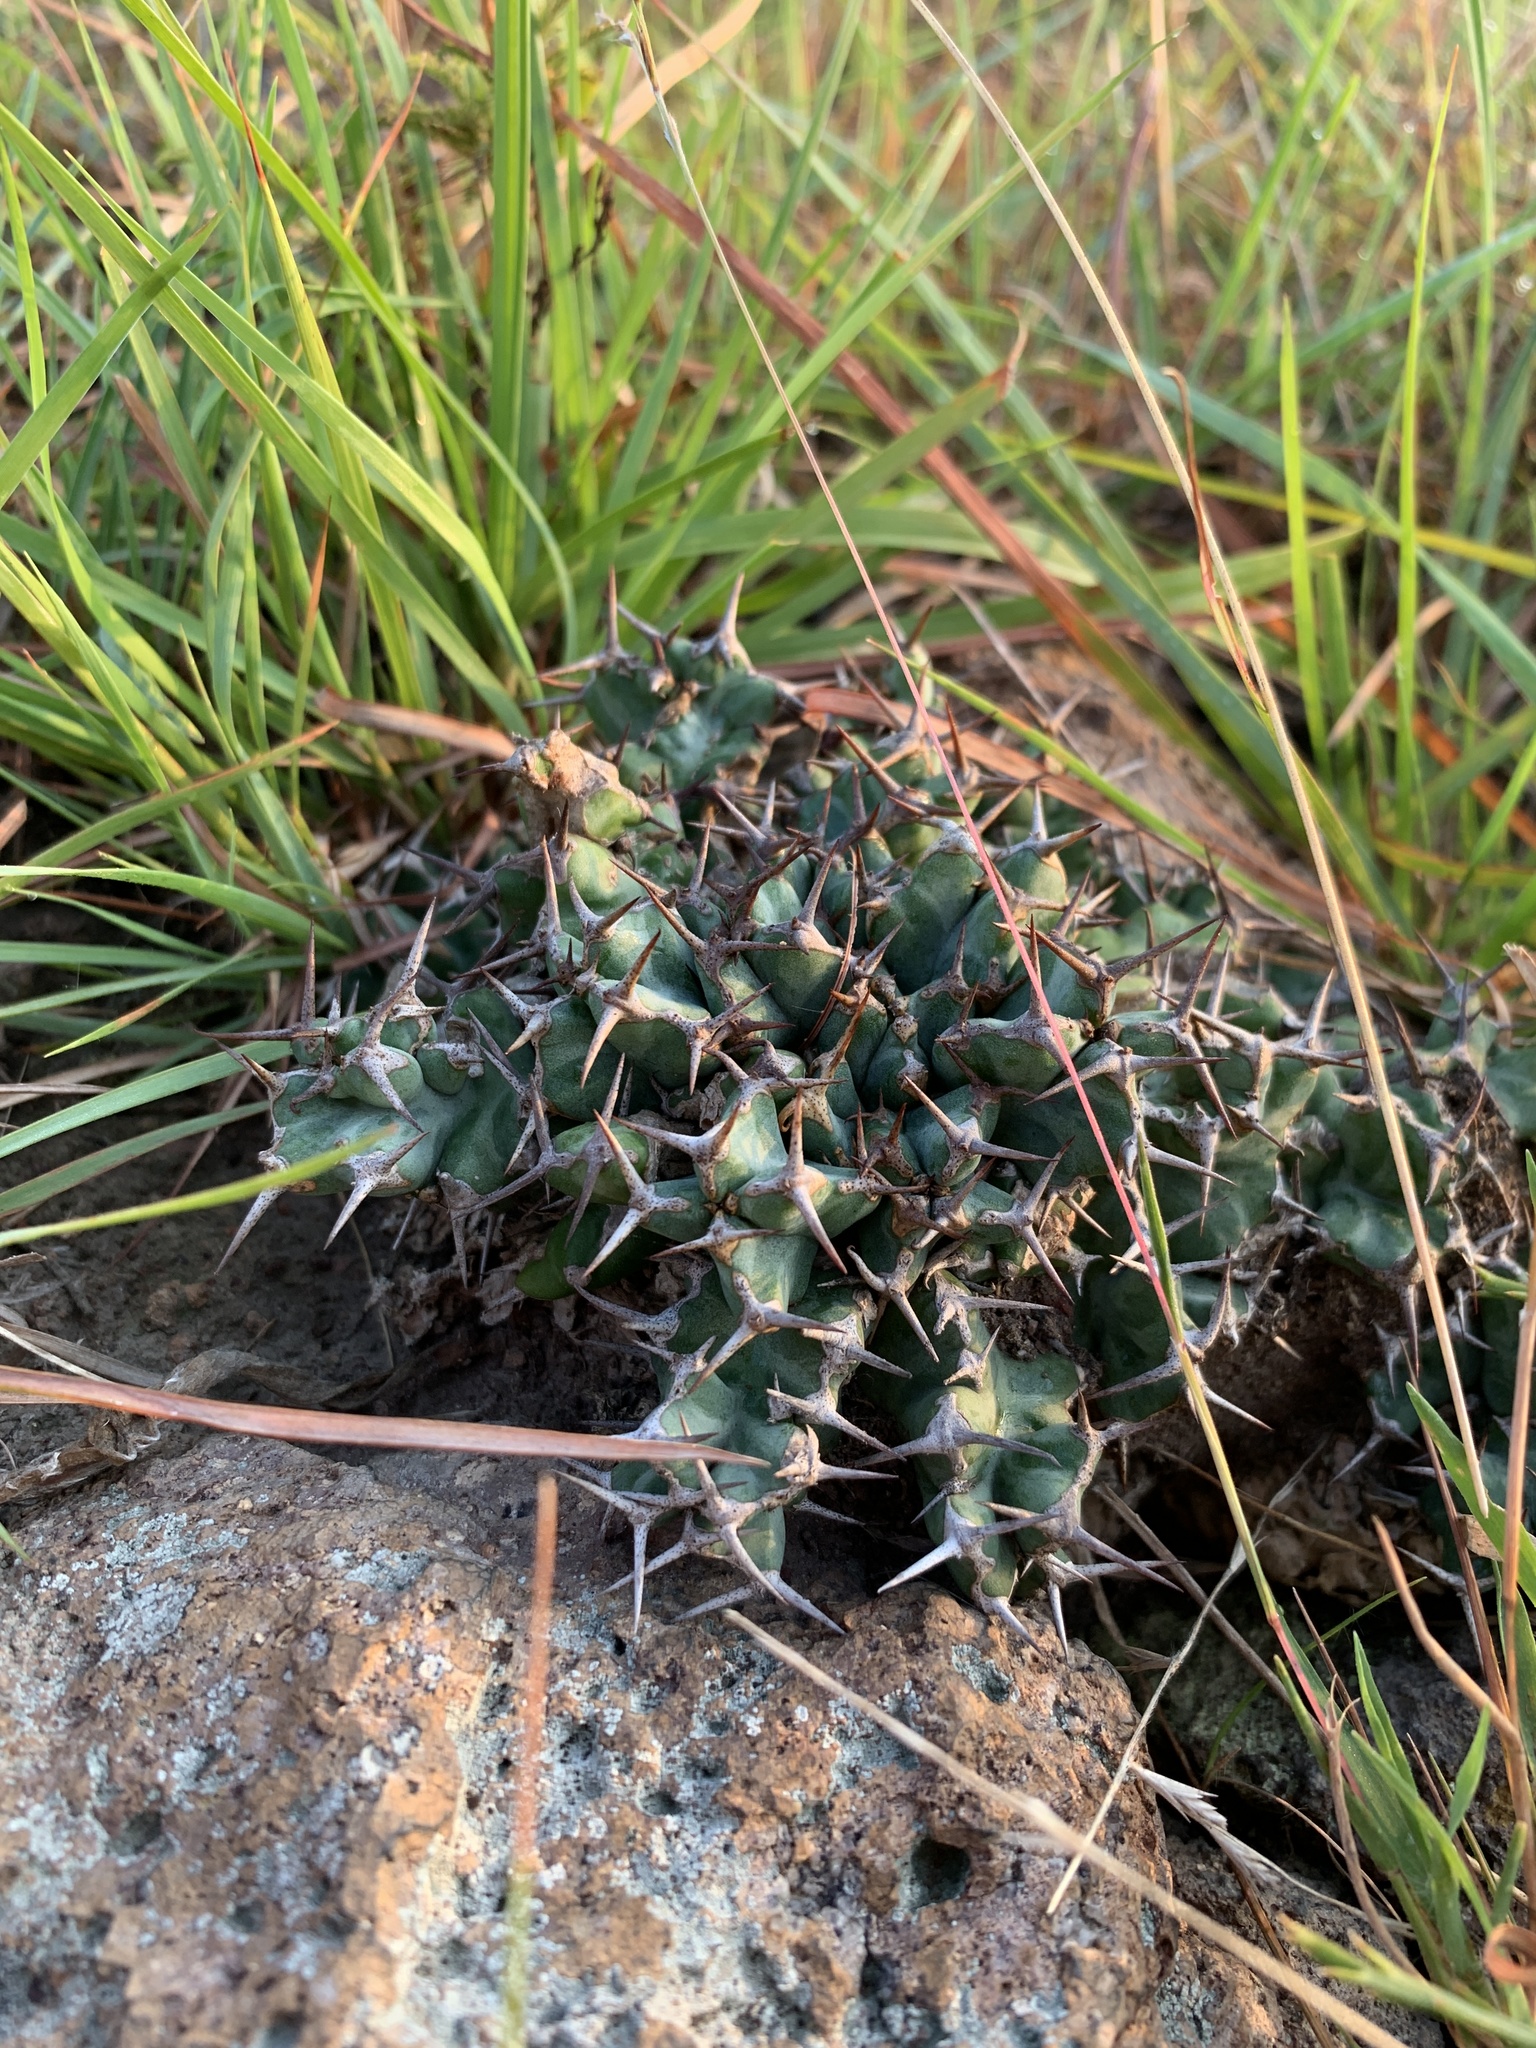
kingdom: Plantae
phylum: Tracheophyta
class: Magnoliopsida
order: Malpighiales
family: Euphorbiaceae
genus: Euphorbia
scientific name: Euphorbia clavigera
